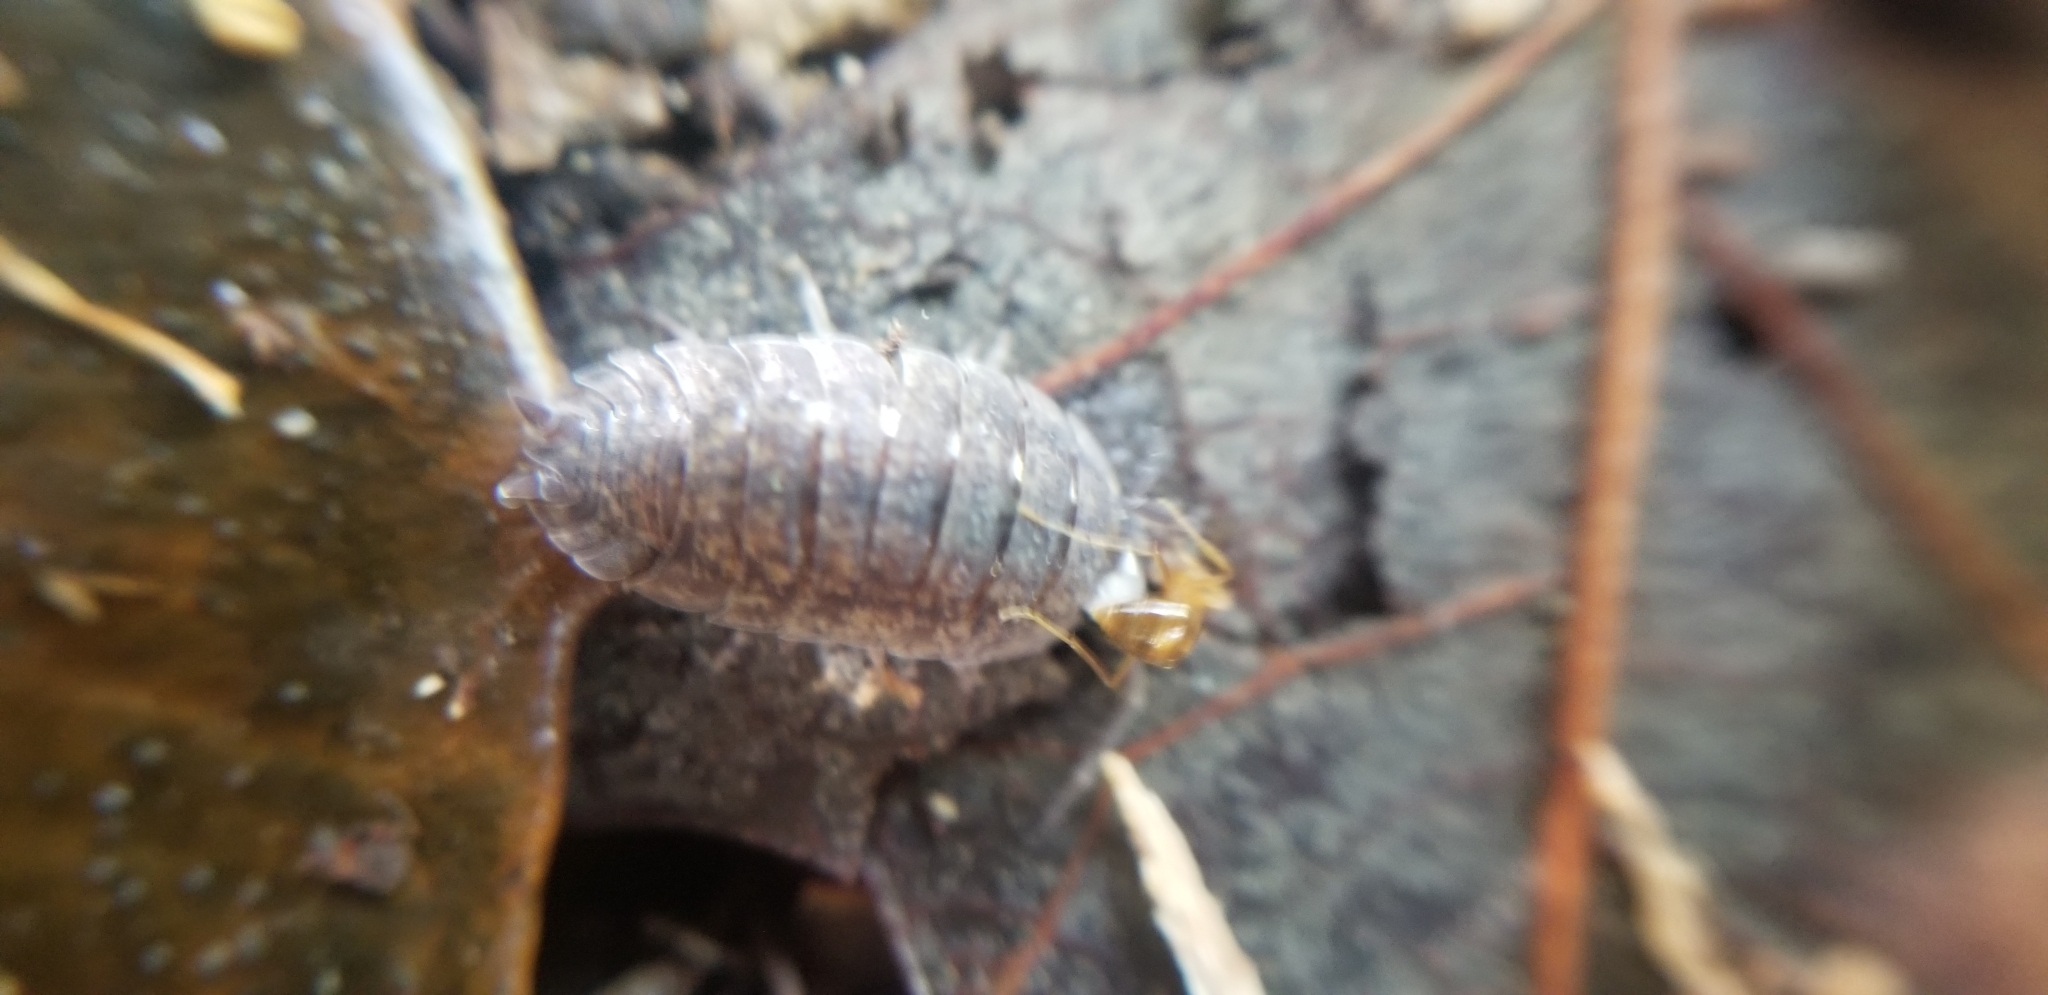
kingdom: Animalia
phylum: Arthropoda
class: Malacostraca
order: Isopoda
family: Porcellionidae
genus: Porcellio
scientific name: Porcellio scaber
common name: Common rough woodlouse
